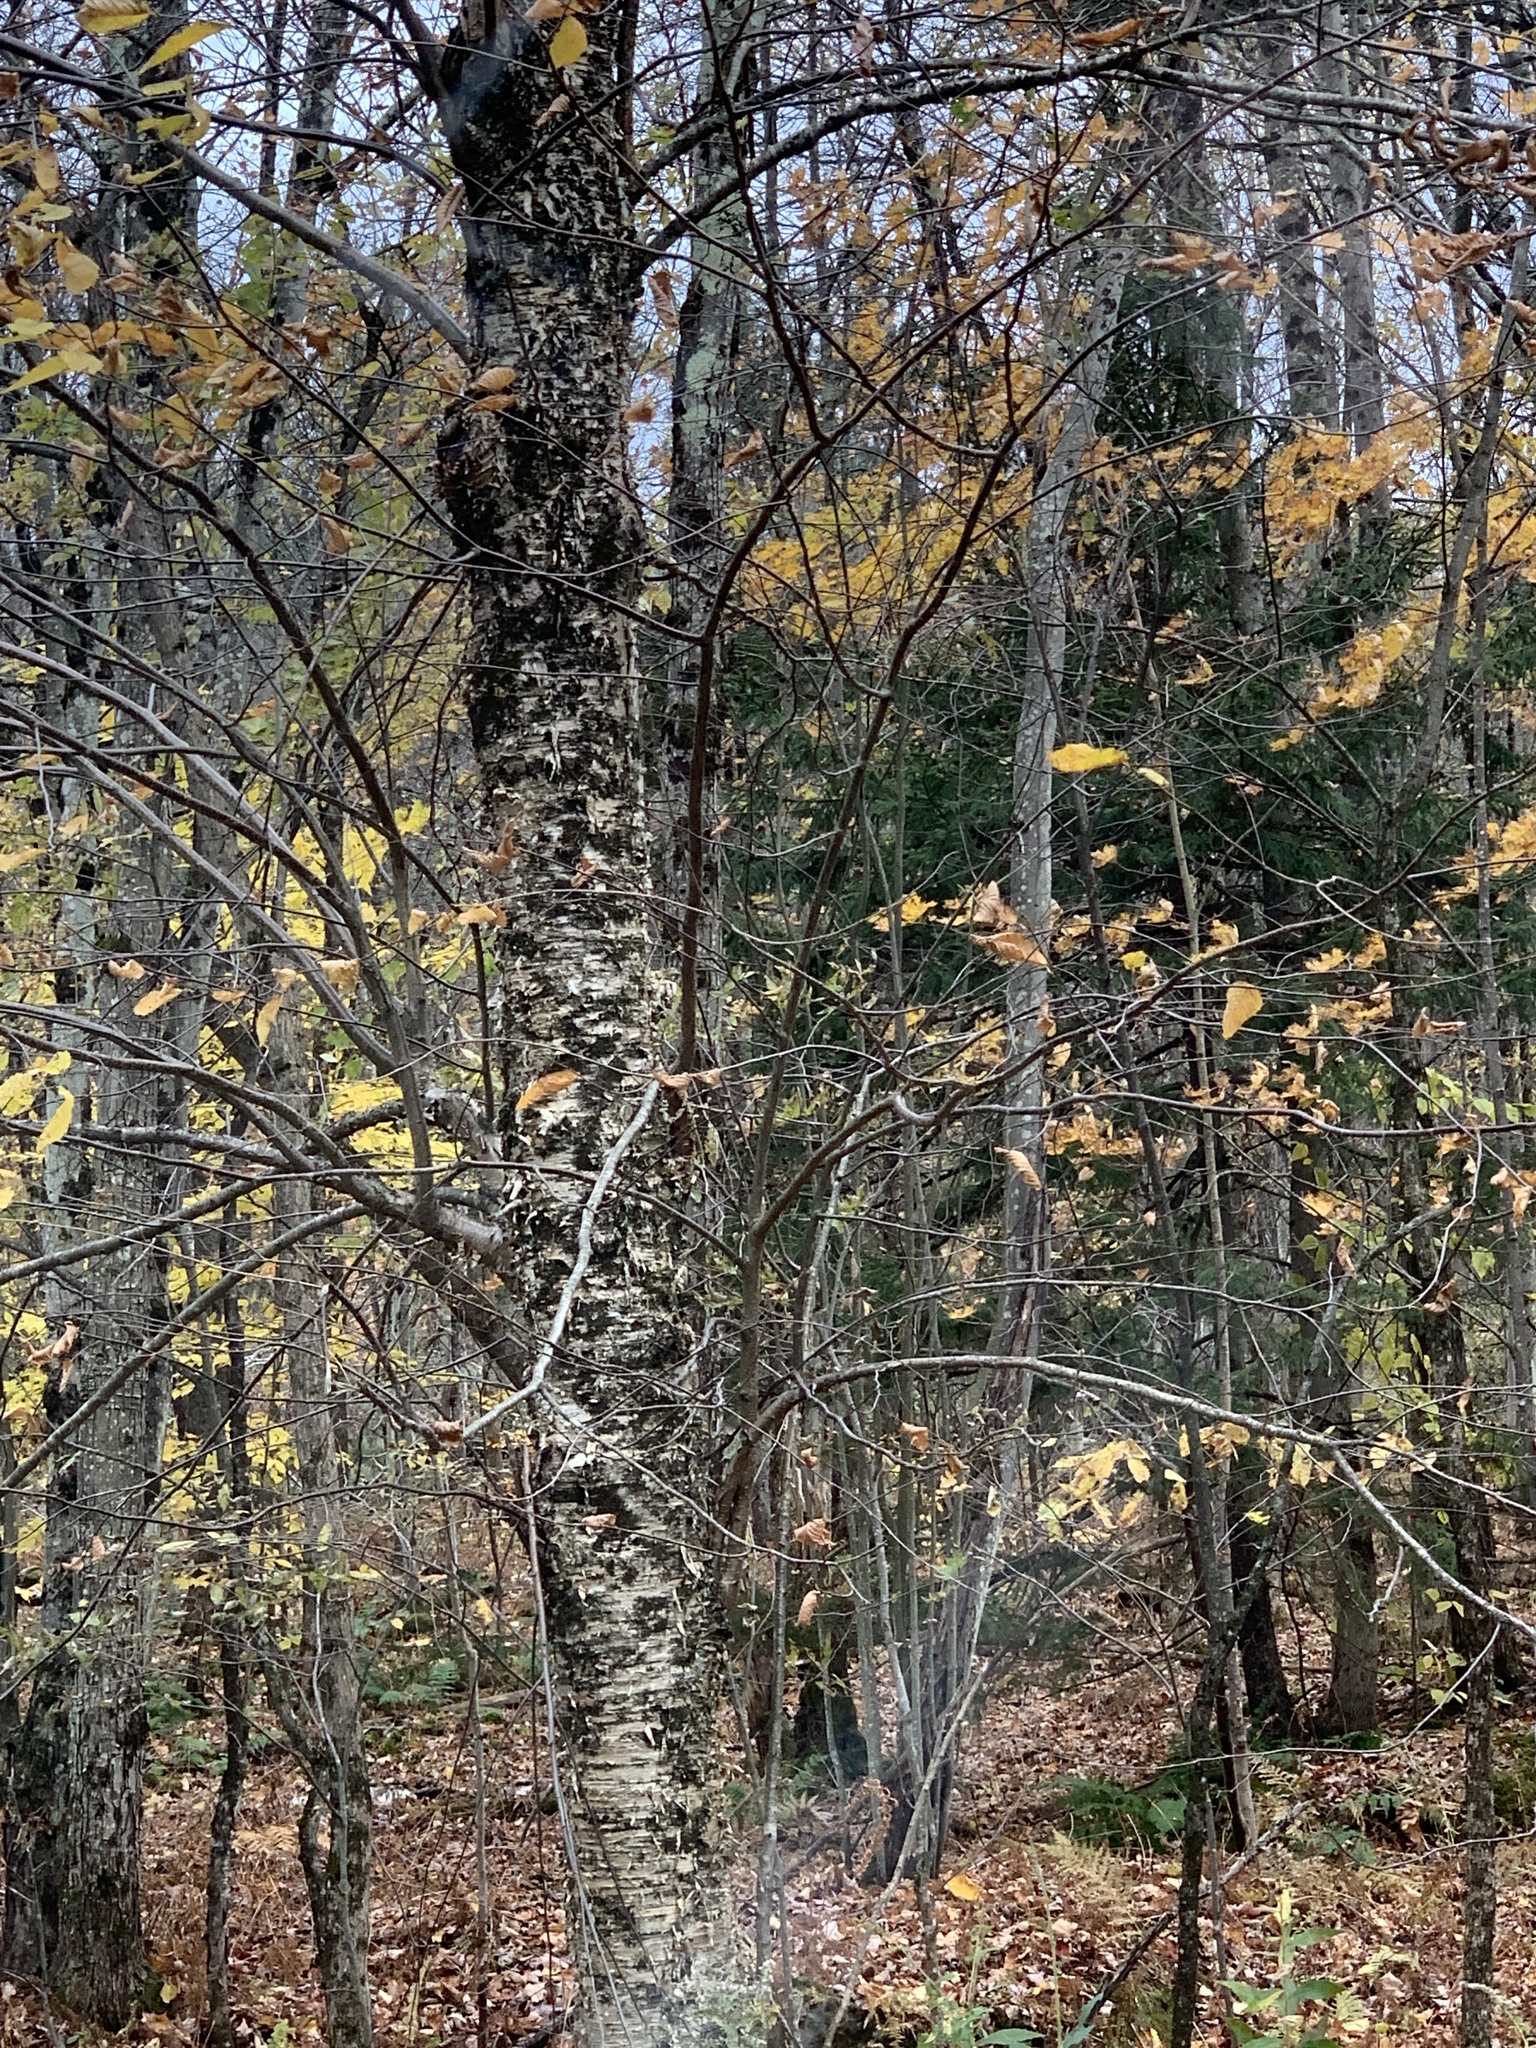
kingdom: Plantae
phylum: Tracheophyta
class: Magnoliopsida
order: Fagales
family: Betulaceae
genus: Betula
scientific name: Betula alleghaniensis
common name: Yellow birch
